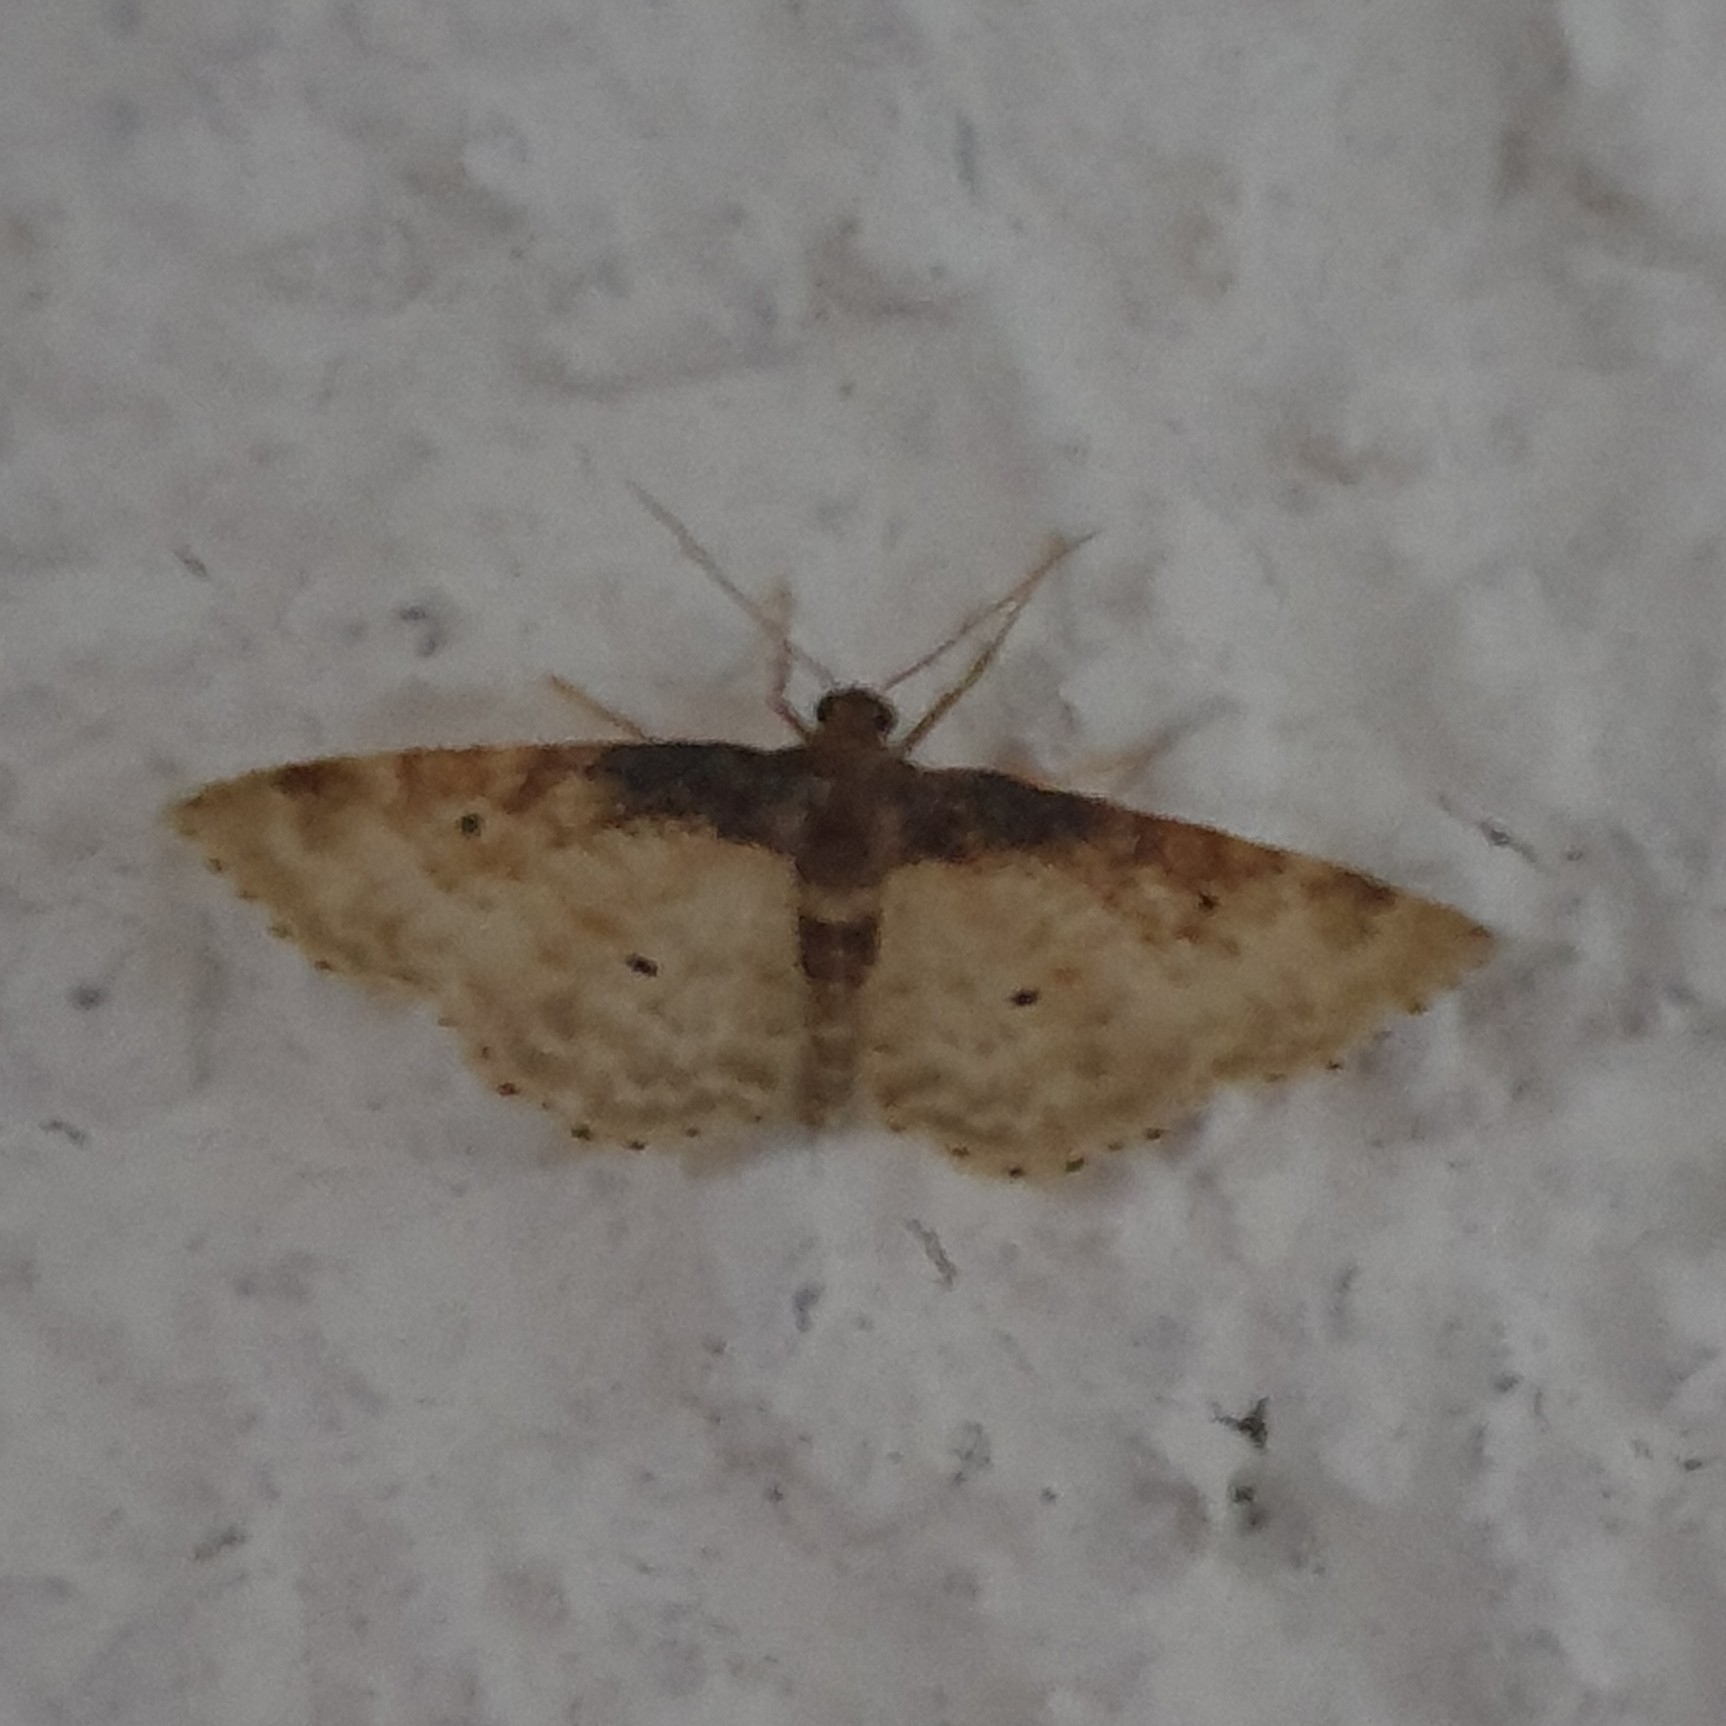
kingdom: Animalia
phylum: Arthropoda
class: Insecta
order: Lepidoptera
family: Geometridae
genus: Idaea
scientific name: Idaea rusticata
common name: Least carpet
